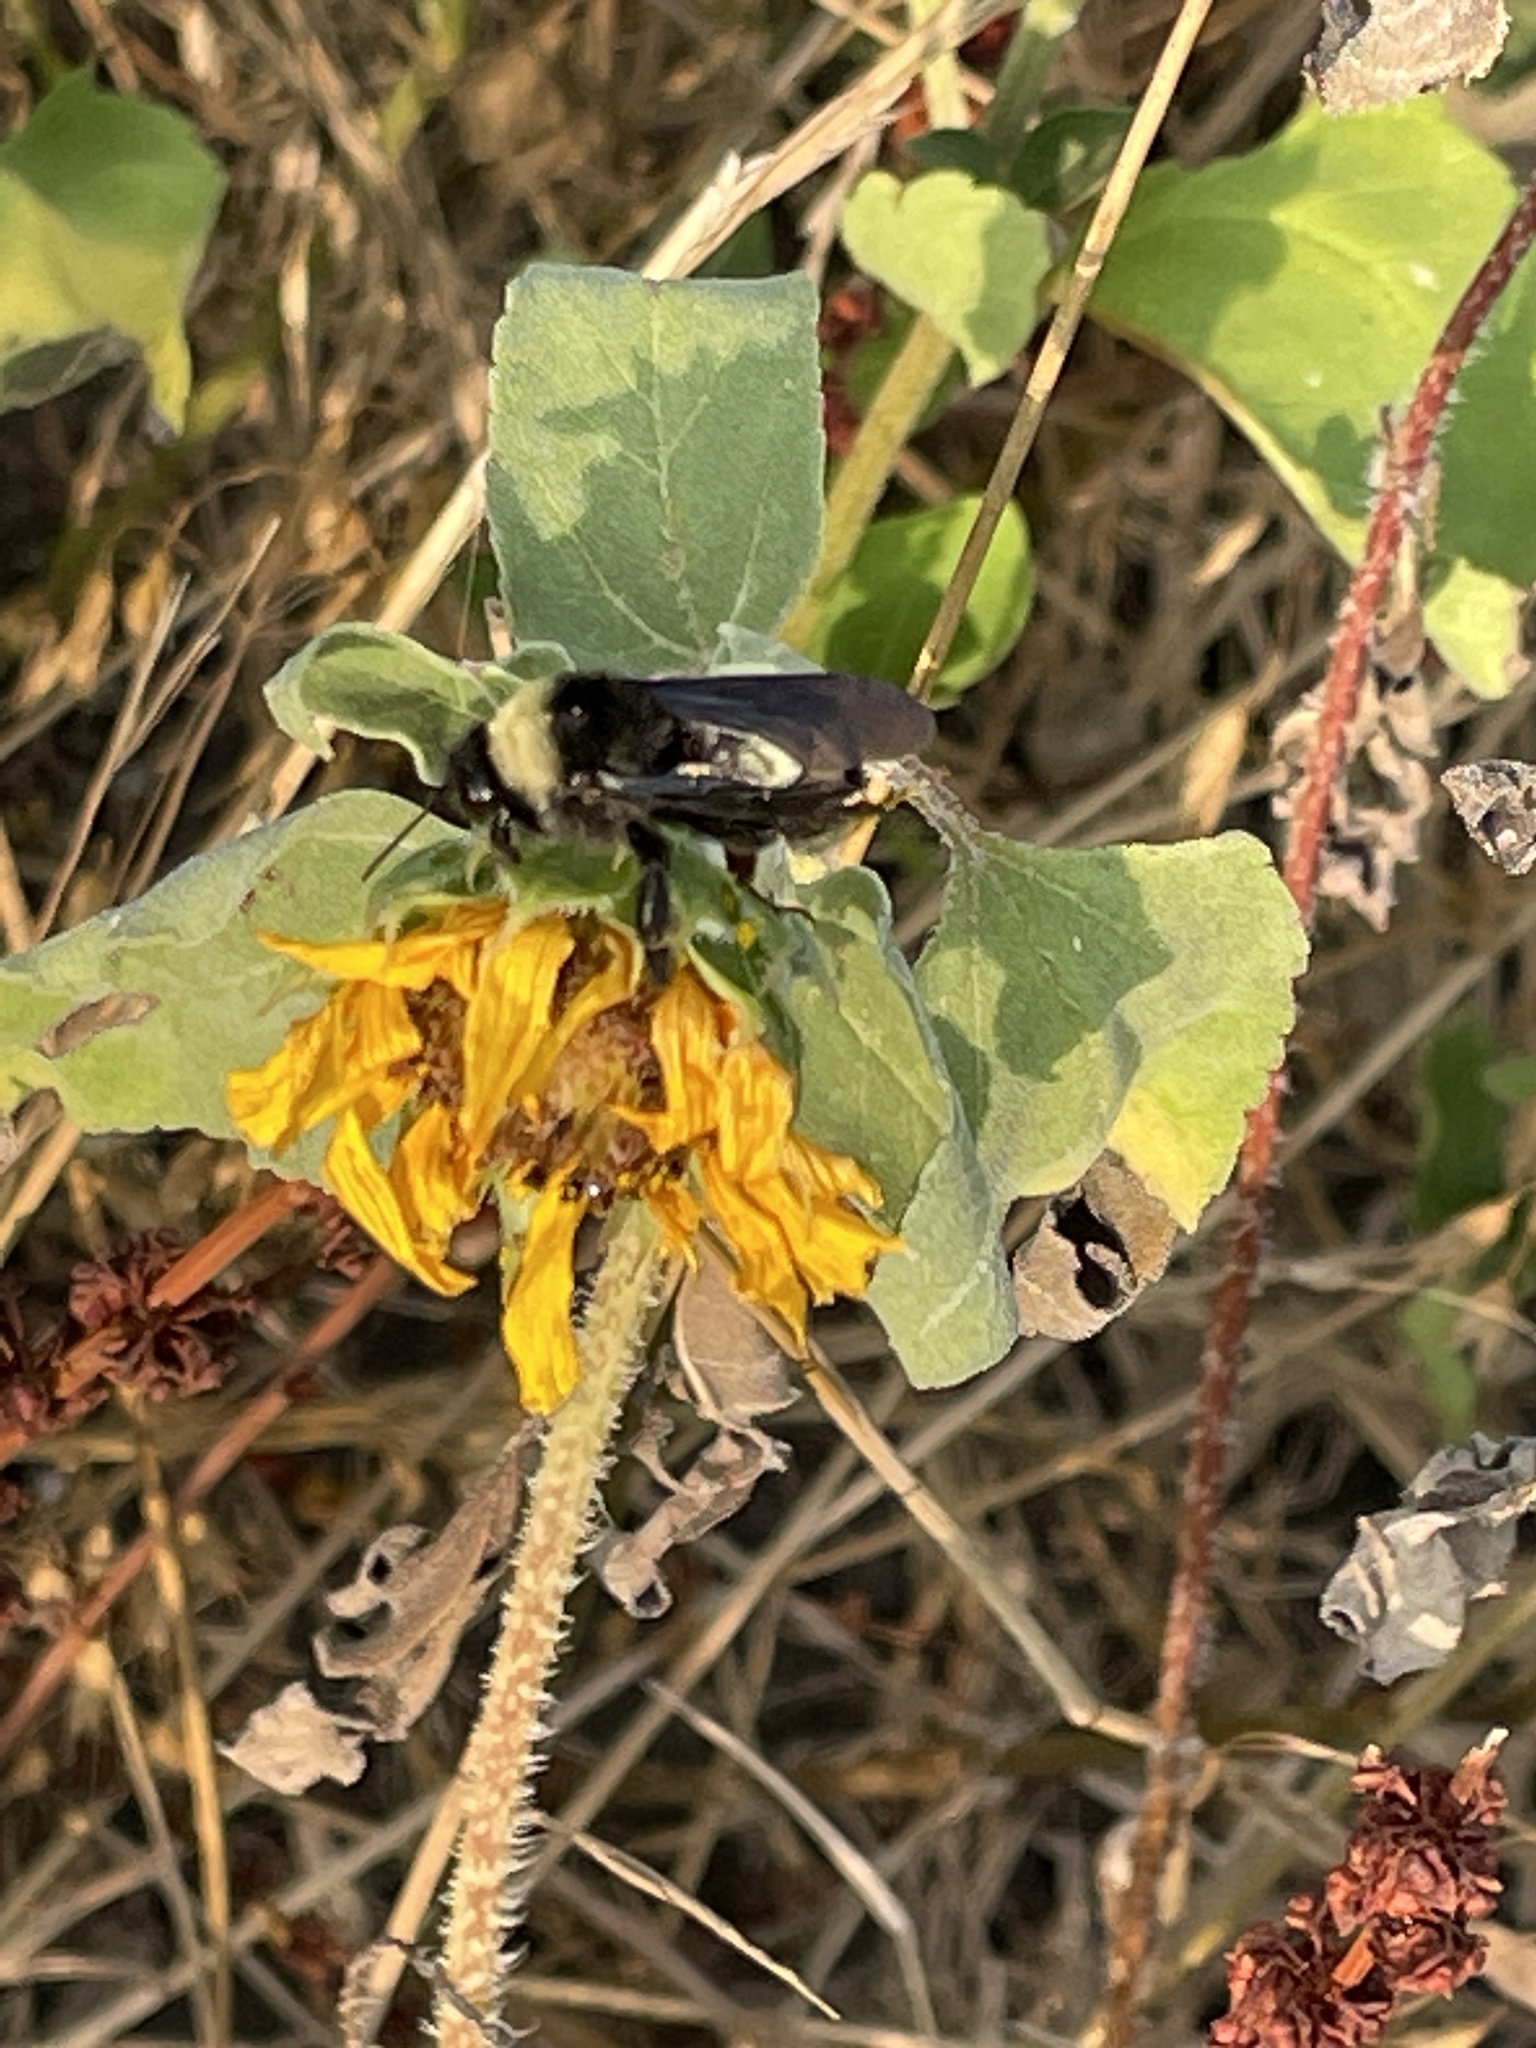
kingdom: Animalia
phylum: Arthropoda
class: Insecta
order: Hymenoptera
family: Apidae
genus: Bombus
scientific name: Bombus pensylvanicus
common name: Bumble bee
